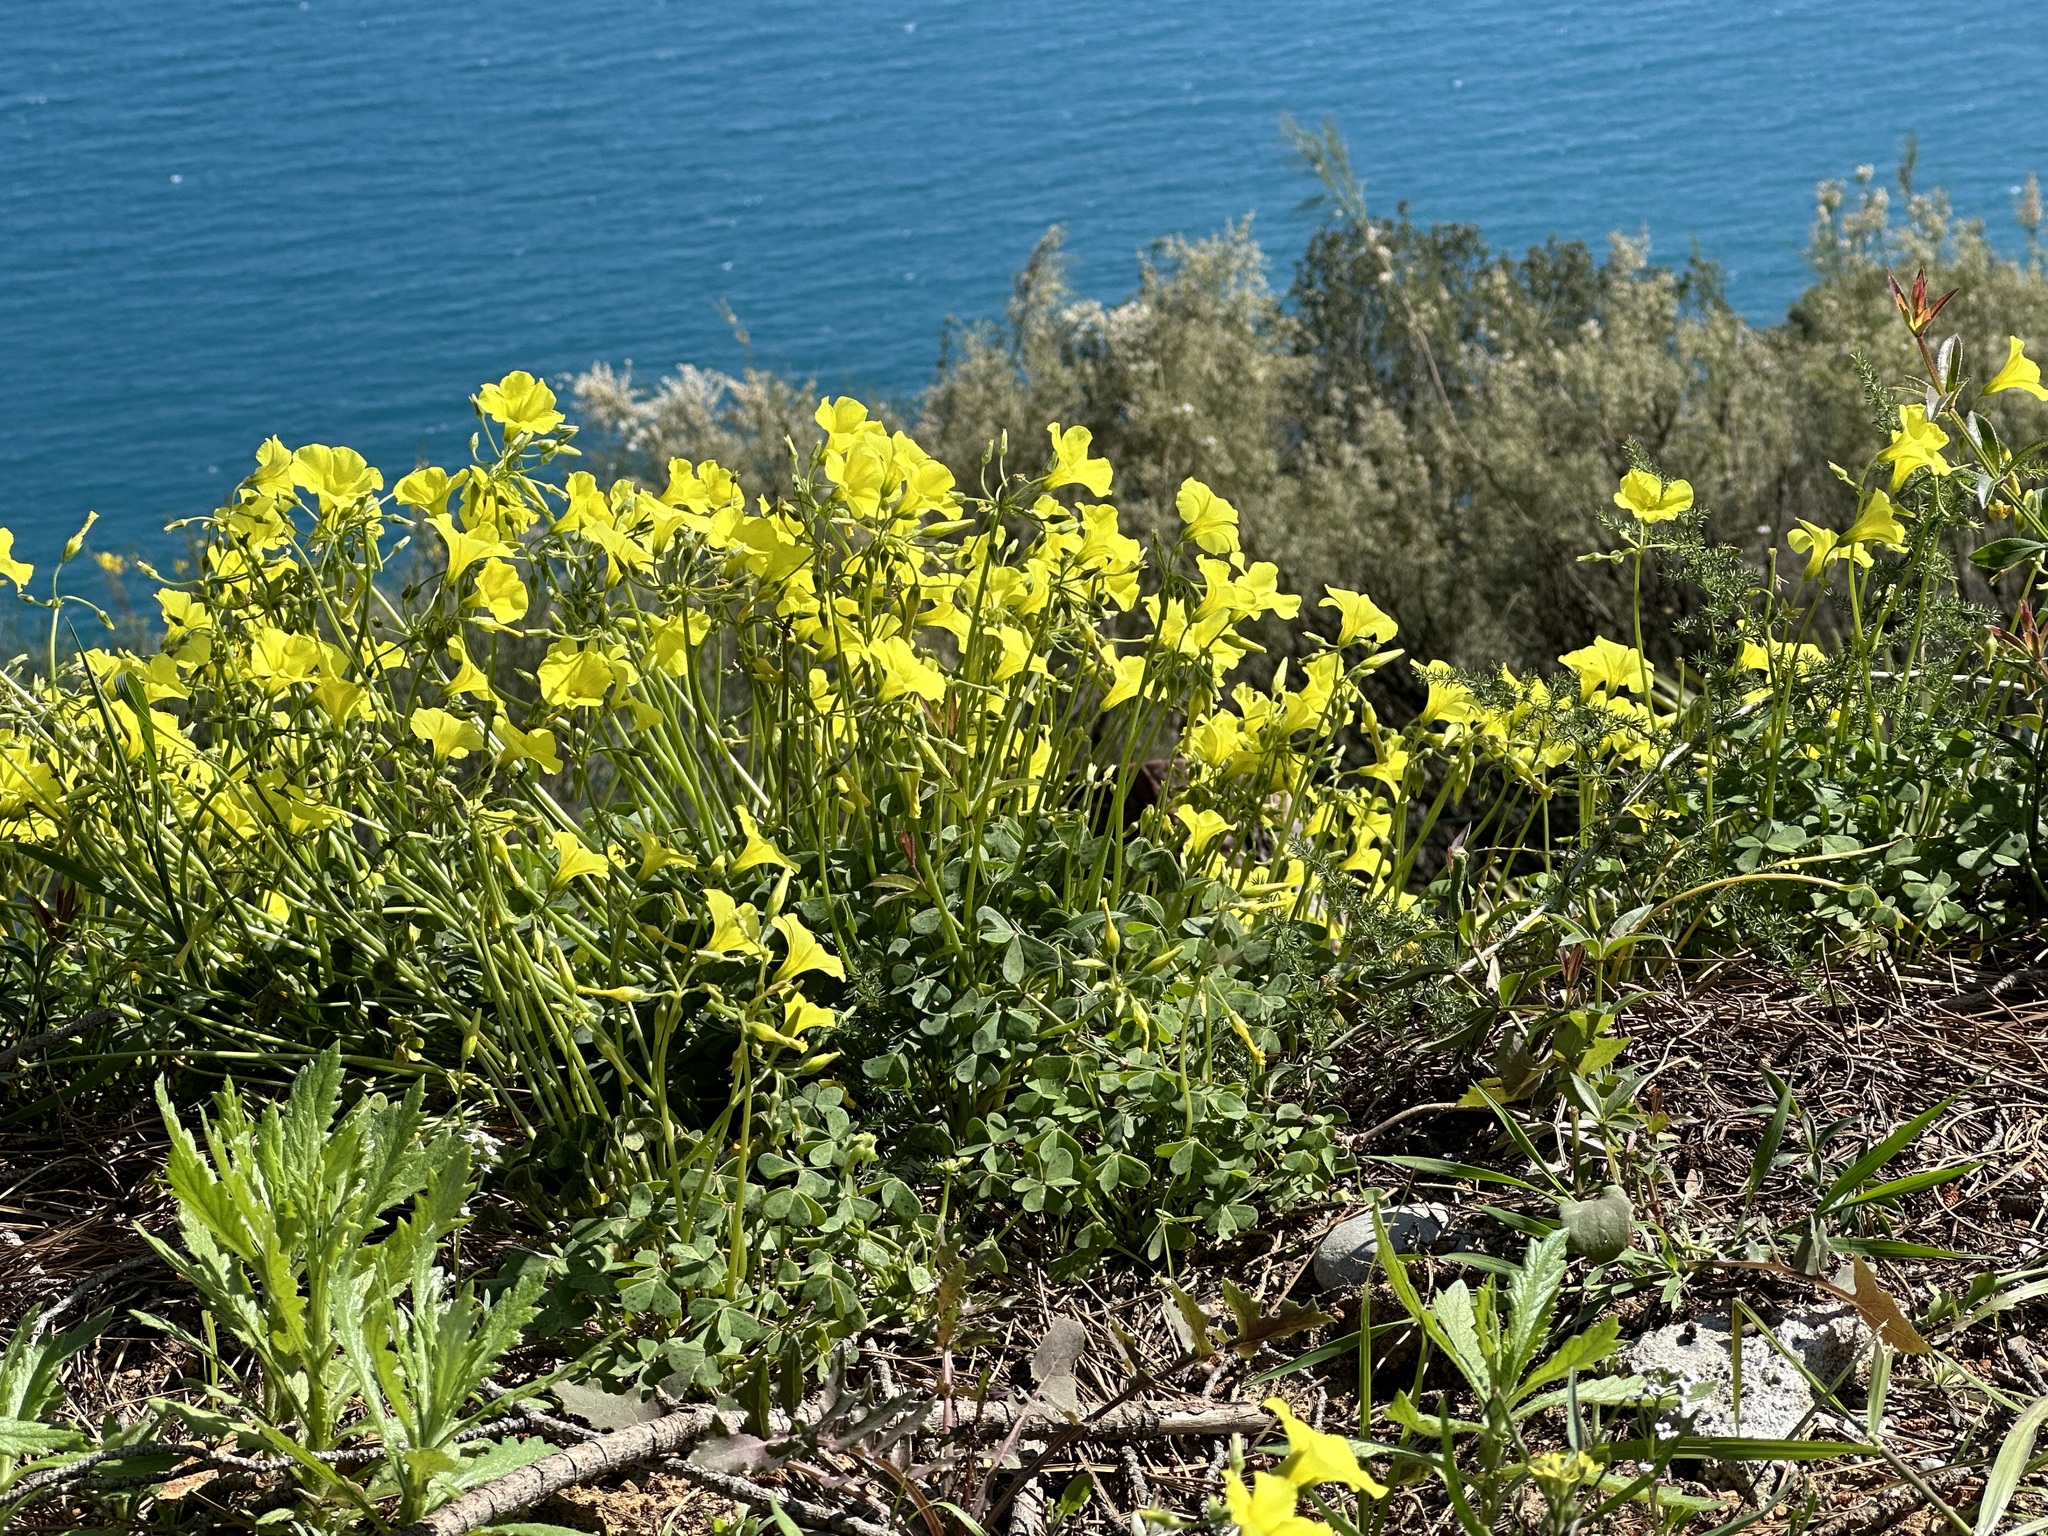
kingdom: Plantae
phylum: Tracheophyta
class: Magnoliopsida
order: Oxalidales
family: Oxalidaceae
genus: Oxalis
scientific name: Oxalis pes-caprae
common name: Bermuda-buttercup
